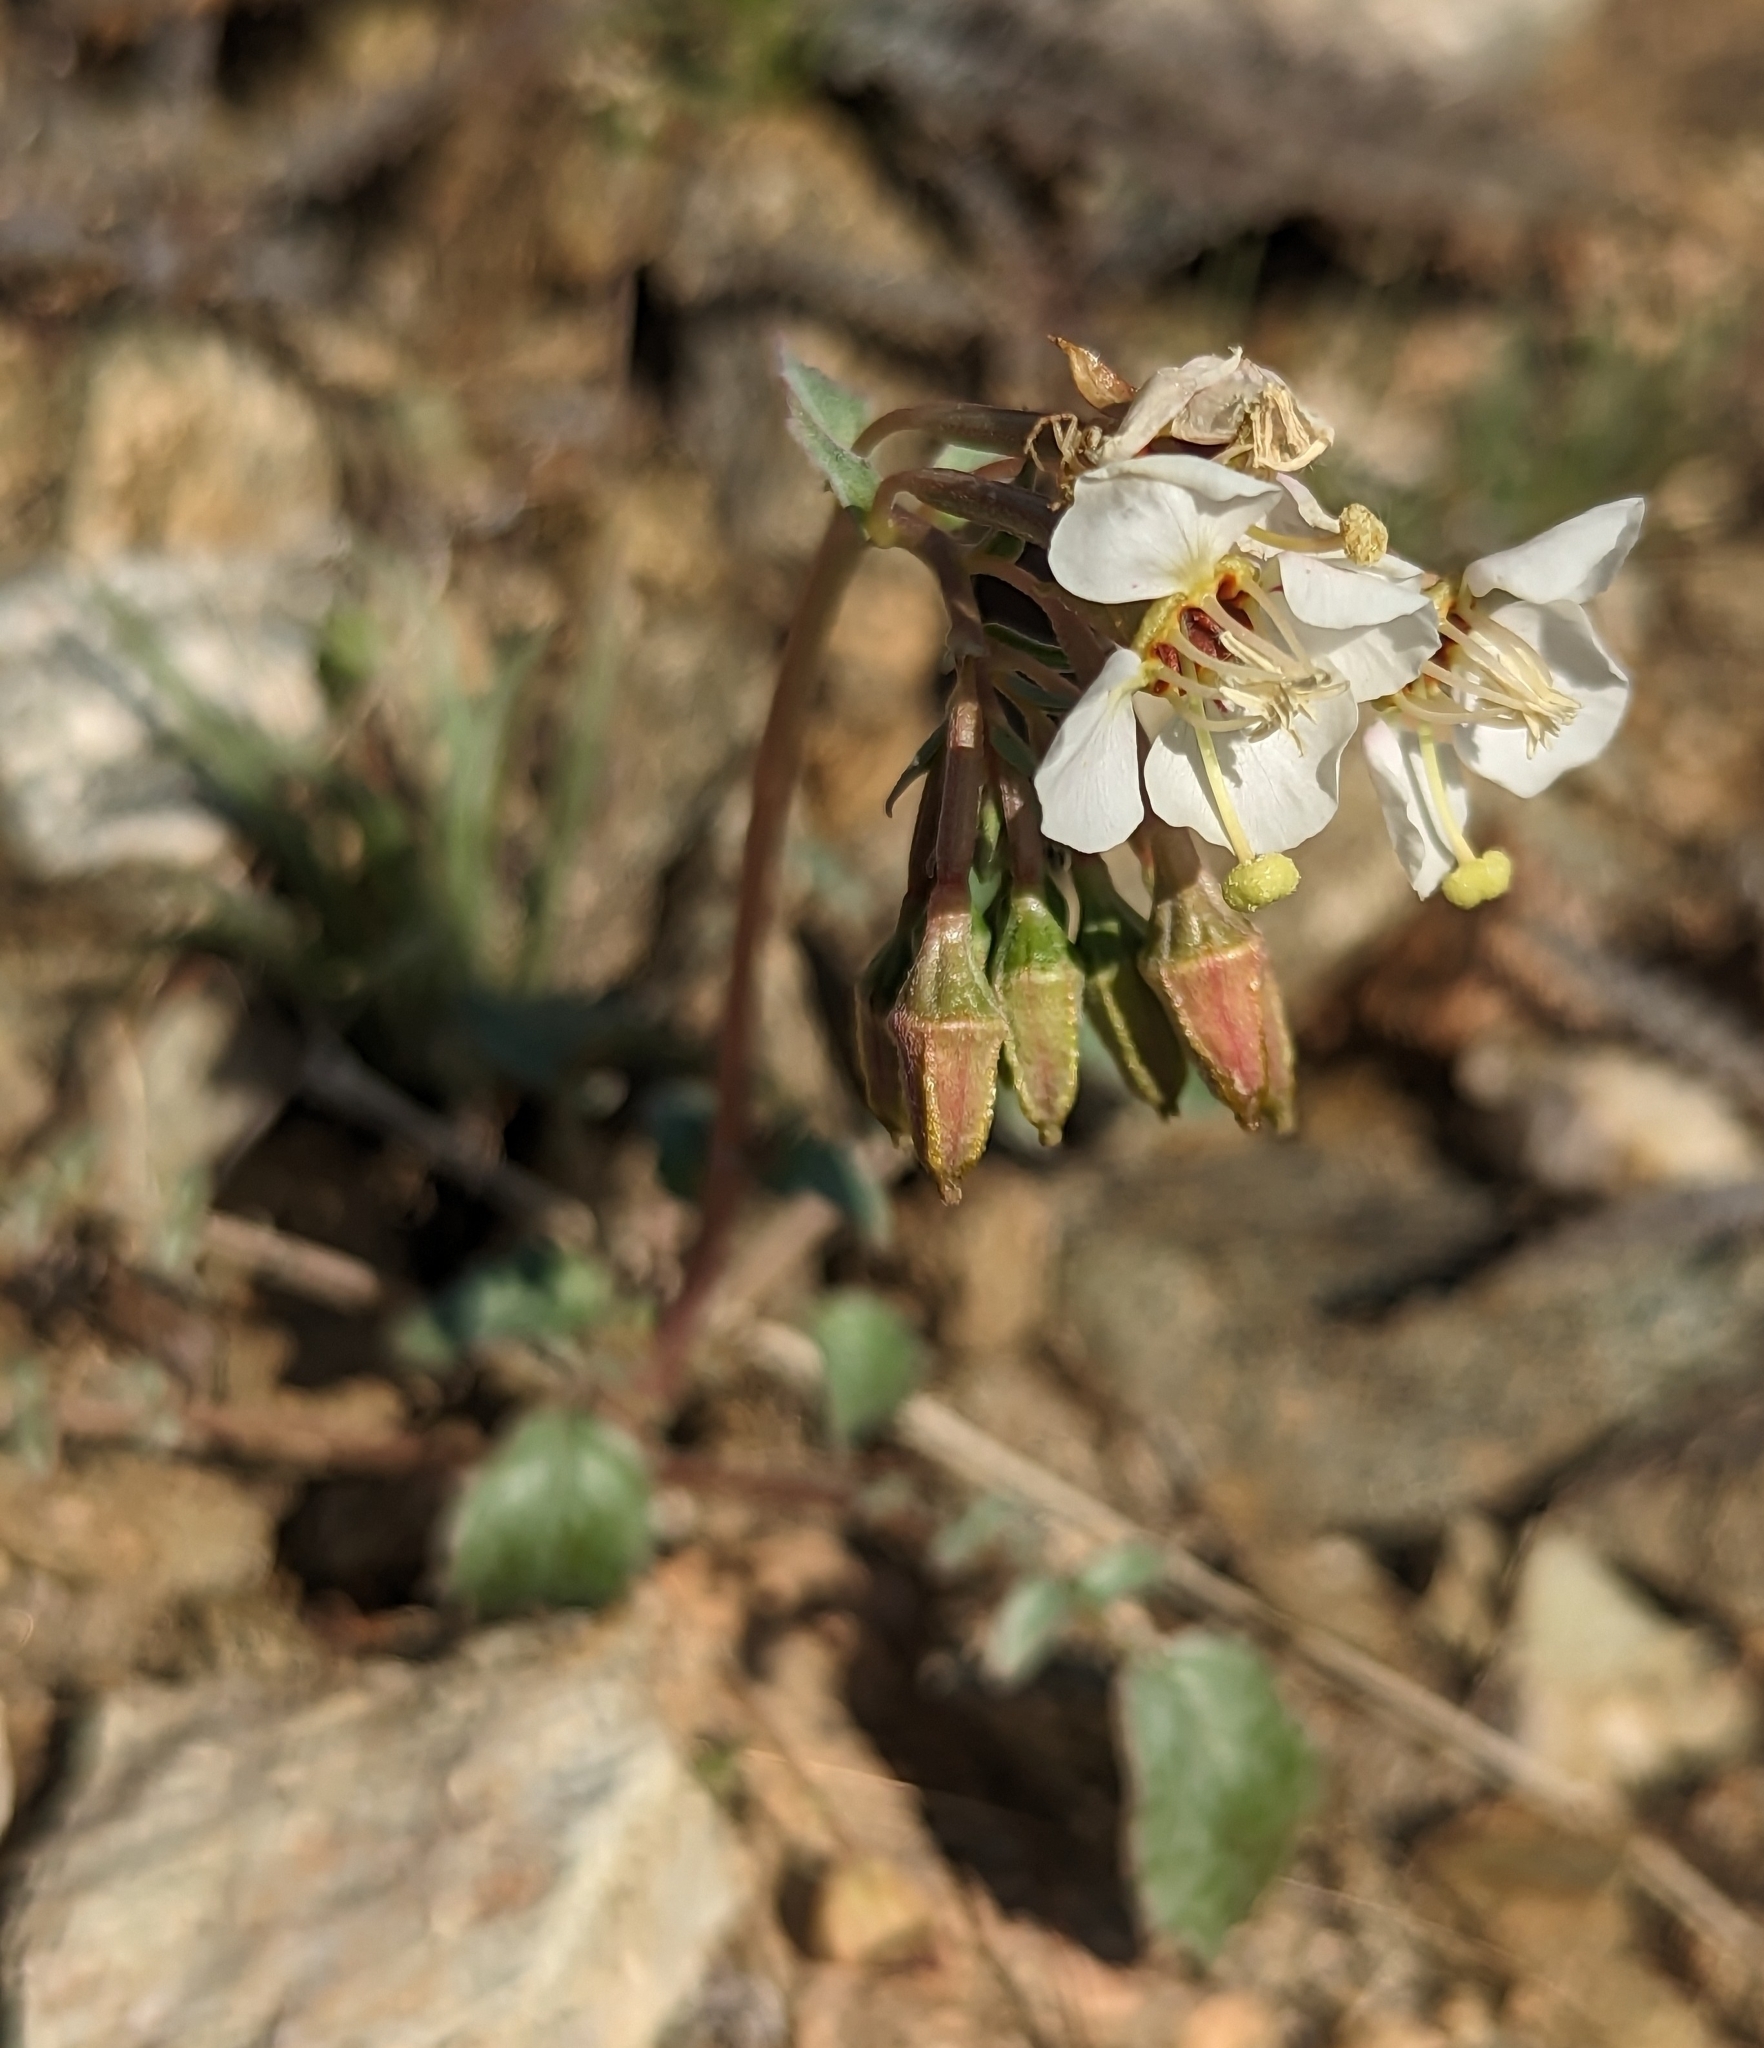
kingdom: Plantae
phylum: Tracheophyta
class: Magnoliopsida
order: Myrtales
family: Onagraceae
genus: Chylismia
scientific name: Chylismia claviformis
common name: Browneyes
